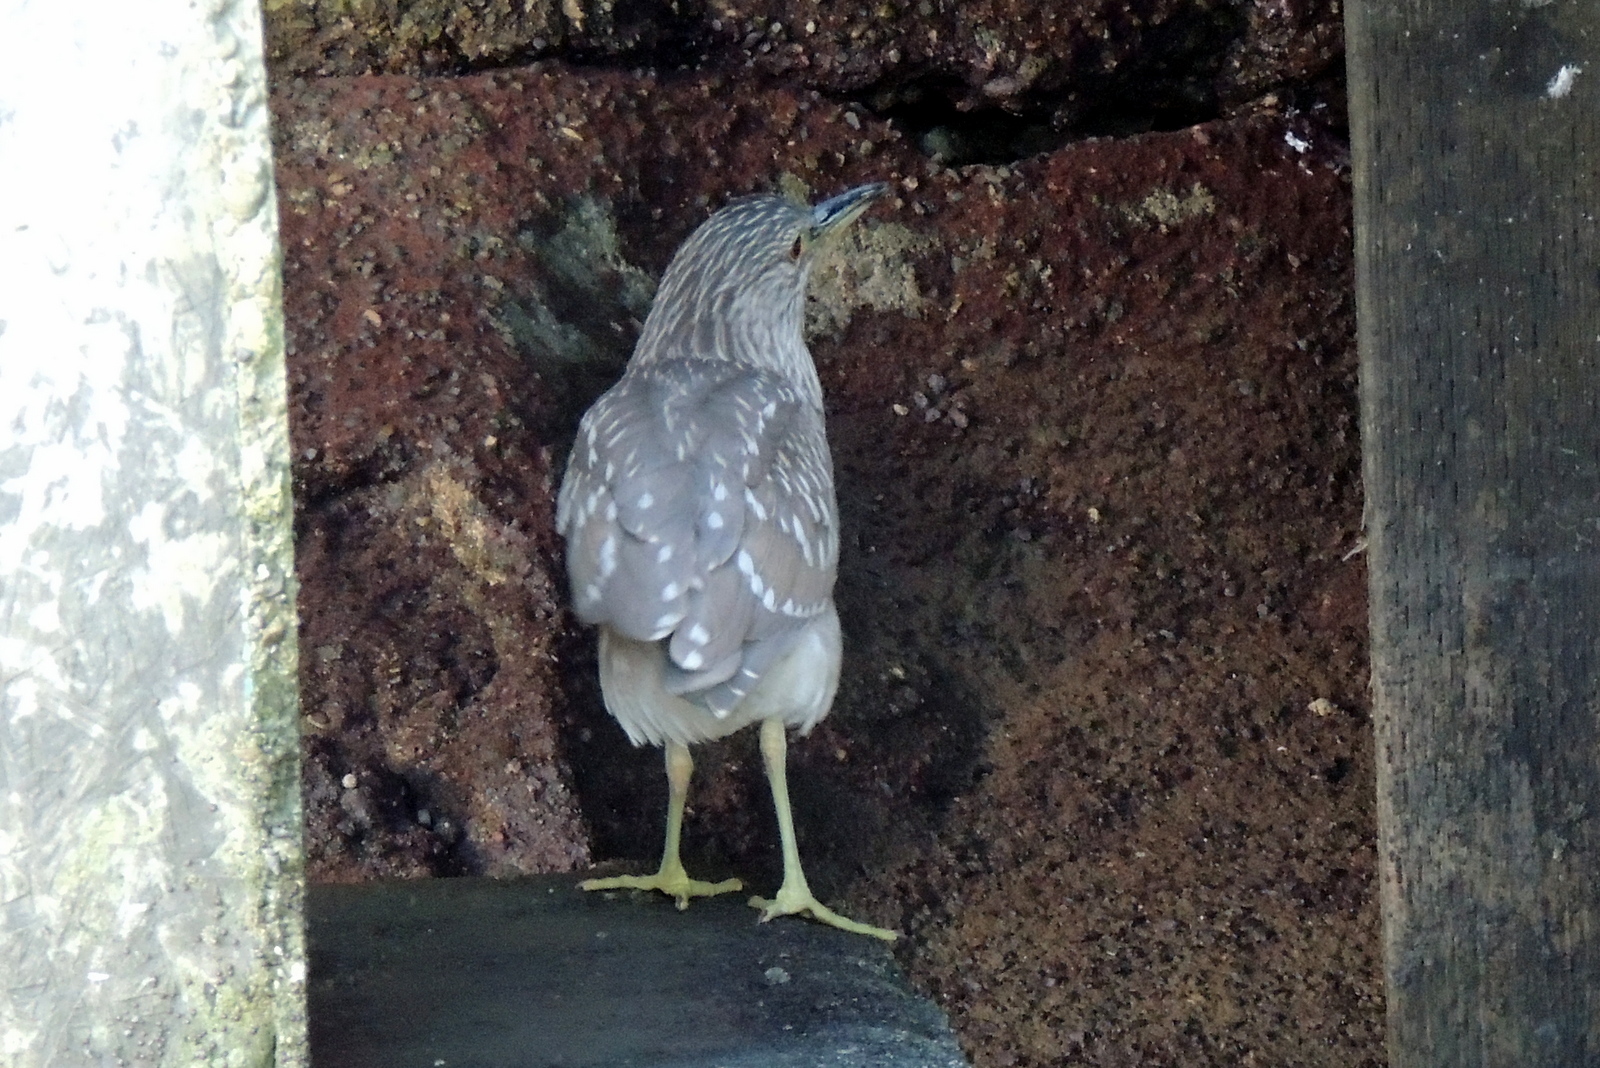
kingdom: Animalia
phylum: Chordata
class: Aves
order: Pelecaniformes
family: Ardeidae
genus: Nycticorax
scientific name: Nycticorax nycticorax
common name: Black-crowned night heron
